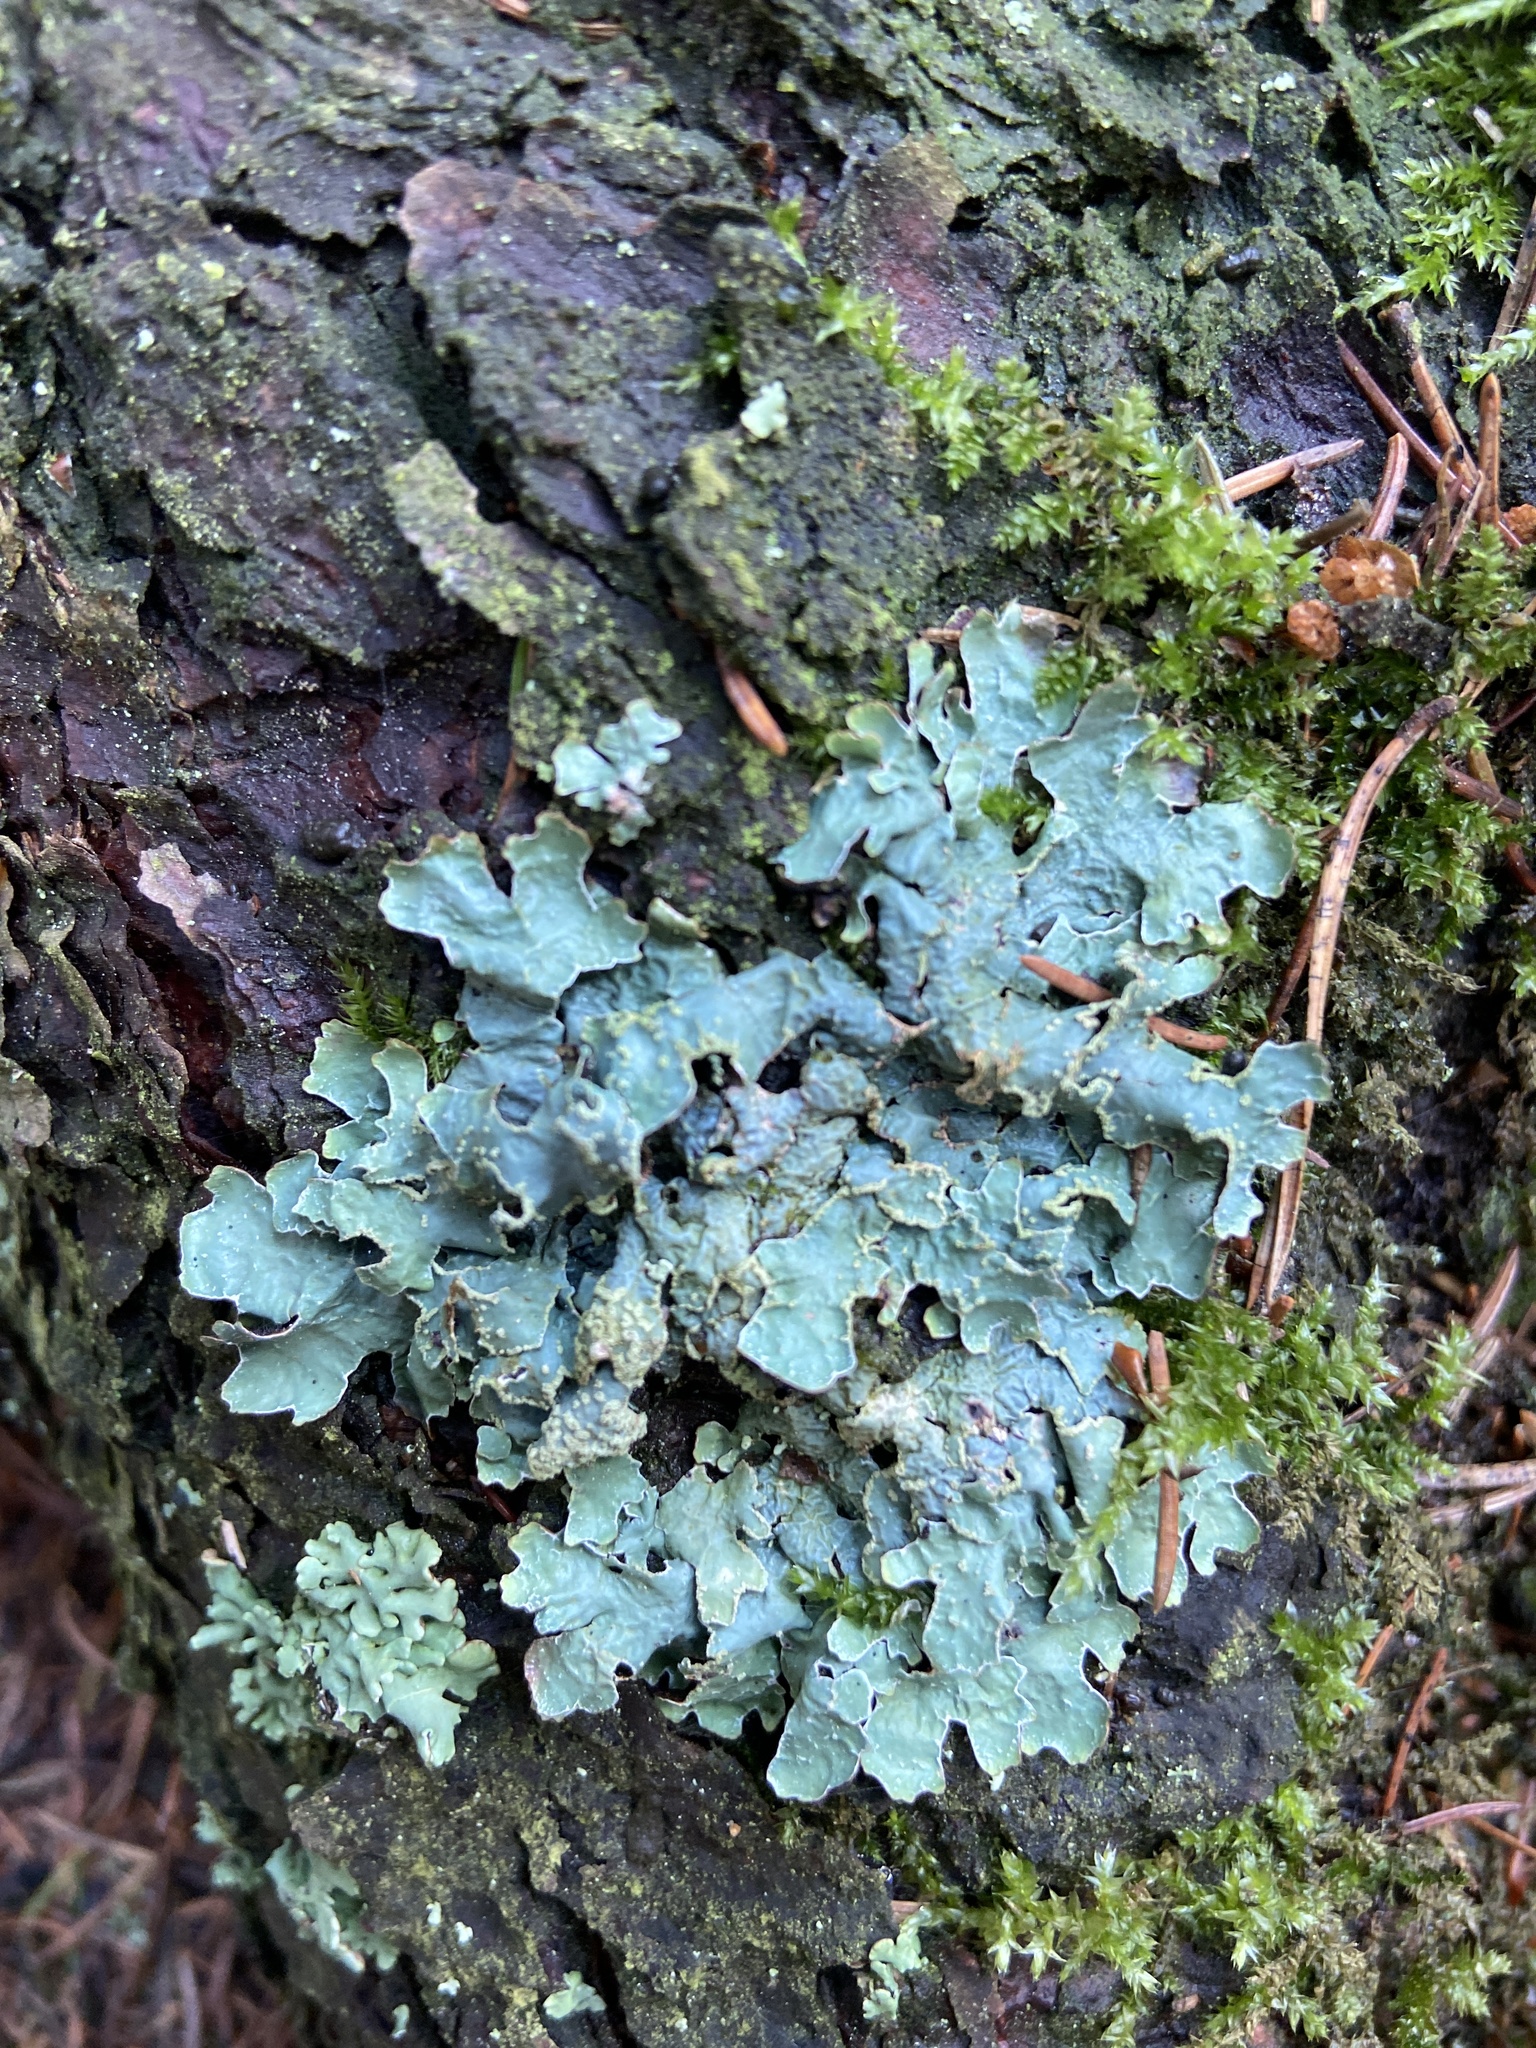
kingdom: Fungi
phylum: Ascomycota
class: Lecanoromycetes
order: Lecanorales
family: Parmeliaceae
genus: Parmelia
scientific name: Parmelia sulcata
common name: Netted shield lichen
